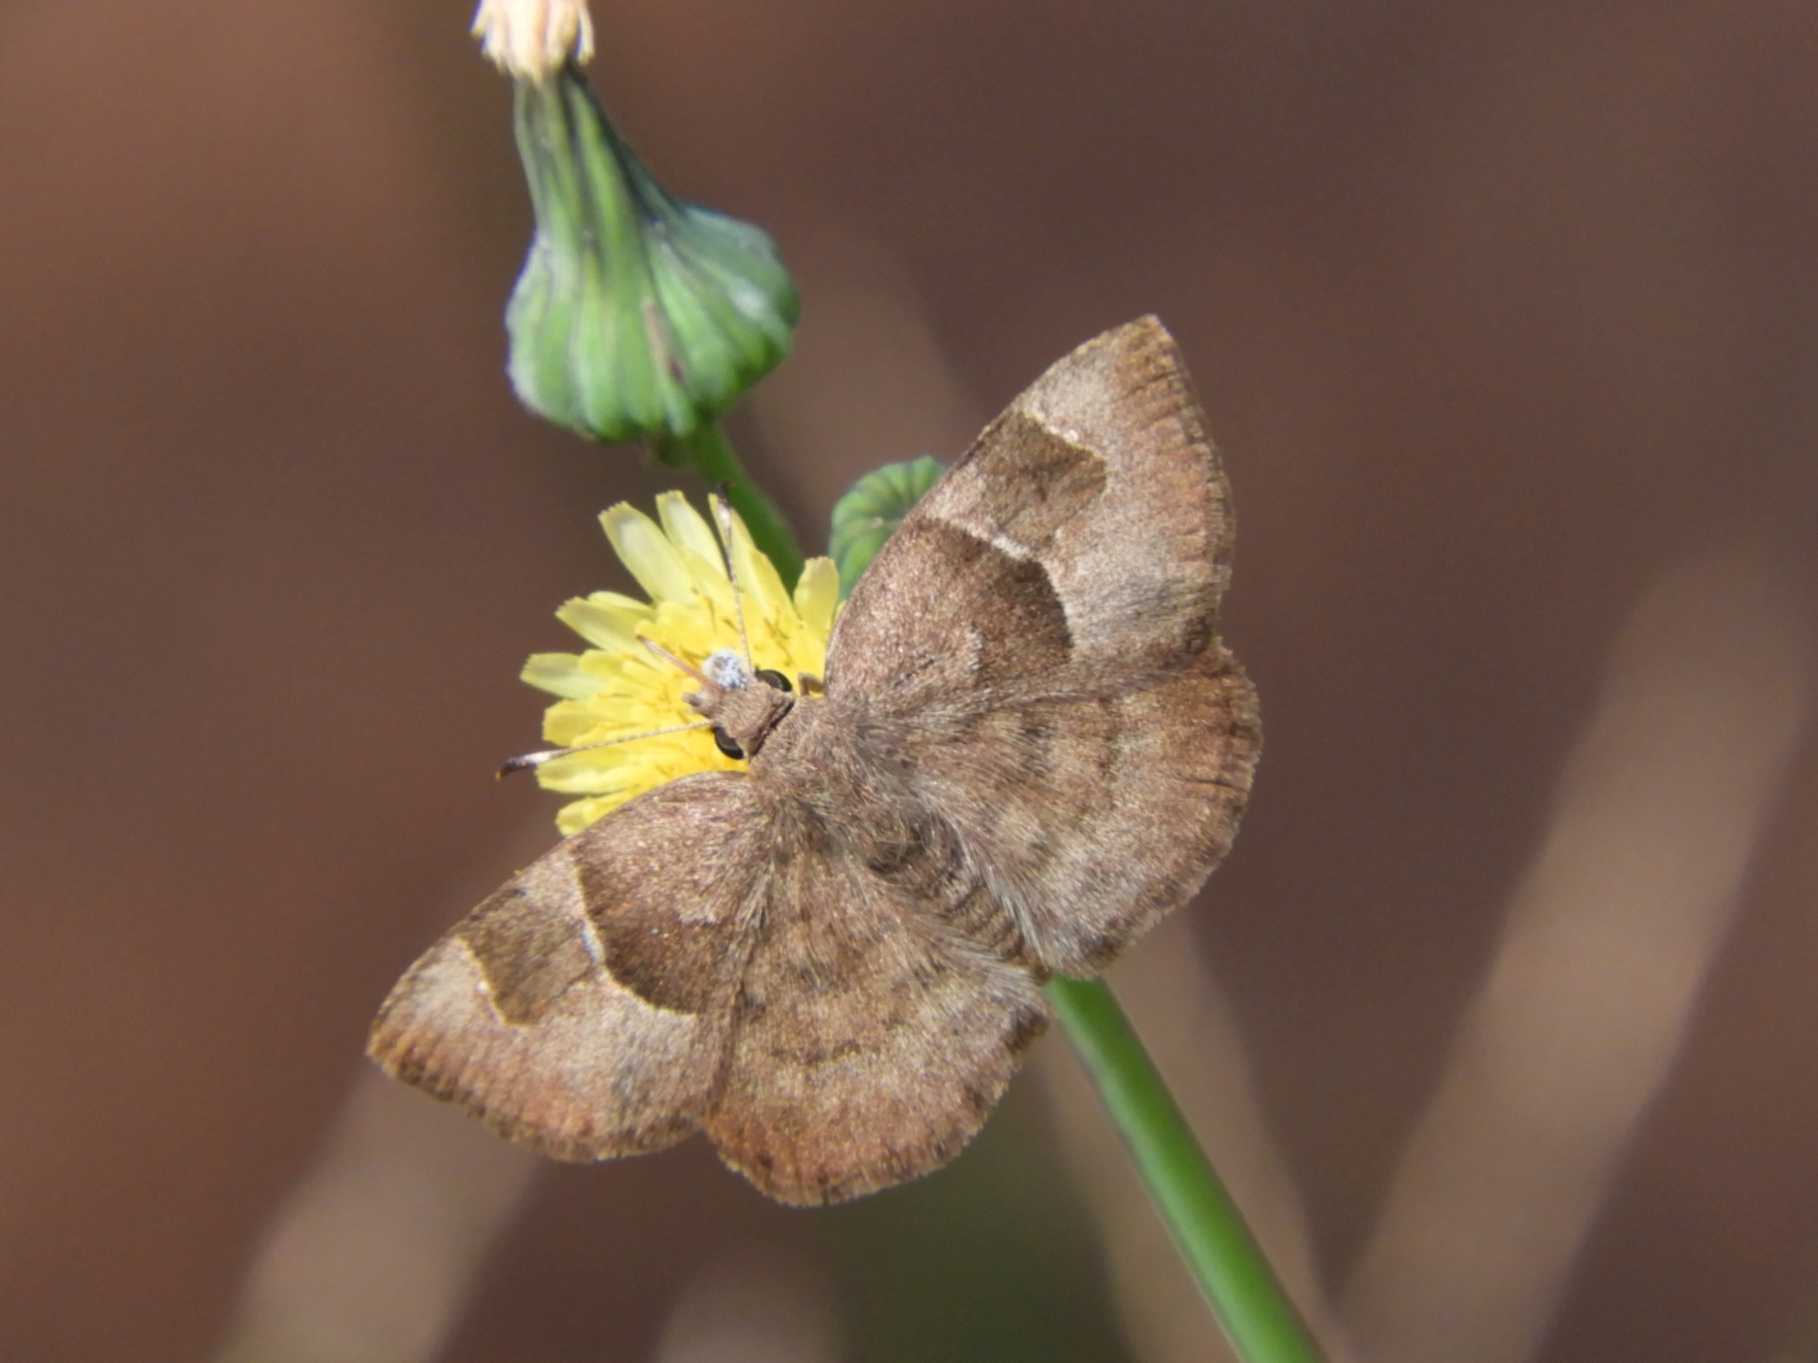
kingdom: Animalia
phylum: Arthropoda
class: Insecta
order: Lepidoptera
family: Hesperiidae
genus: Sarangesa
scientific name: Sarangesa phidyle
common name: Small elfin
